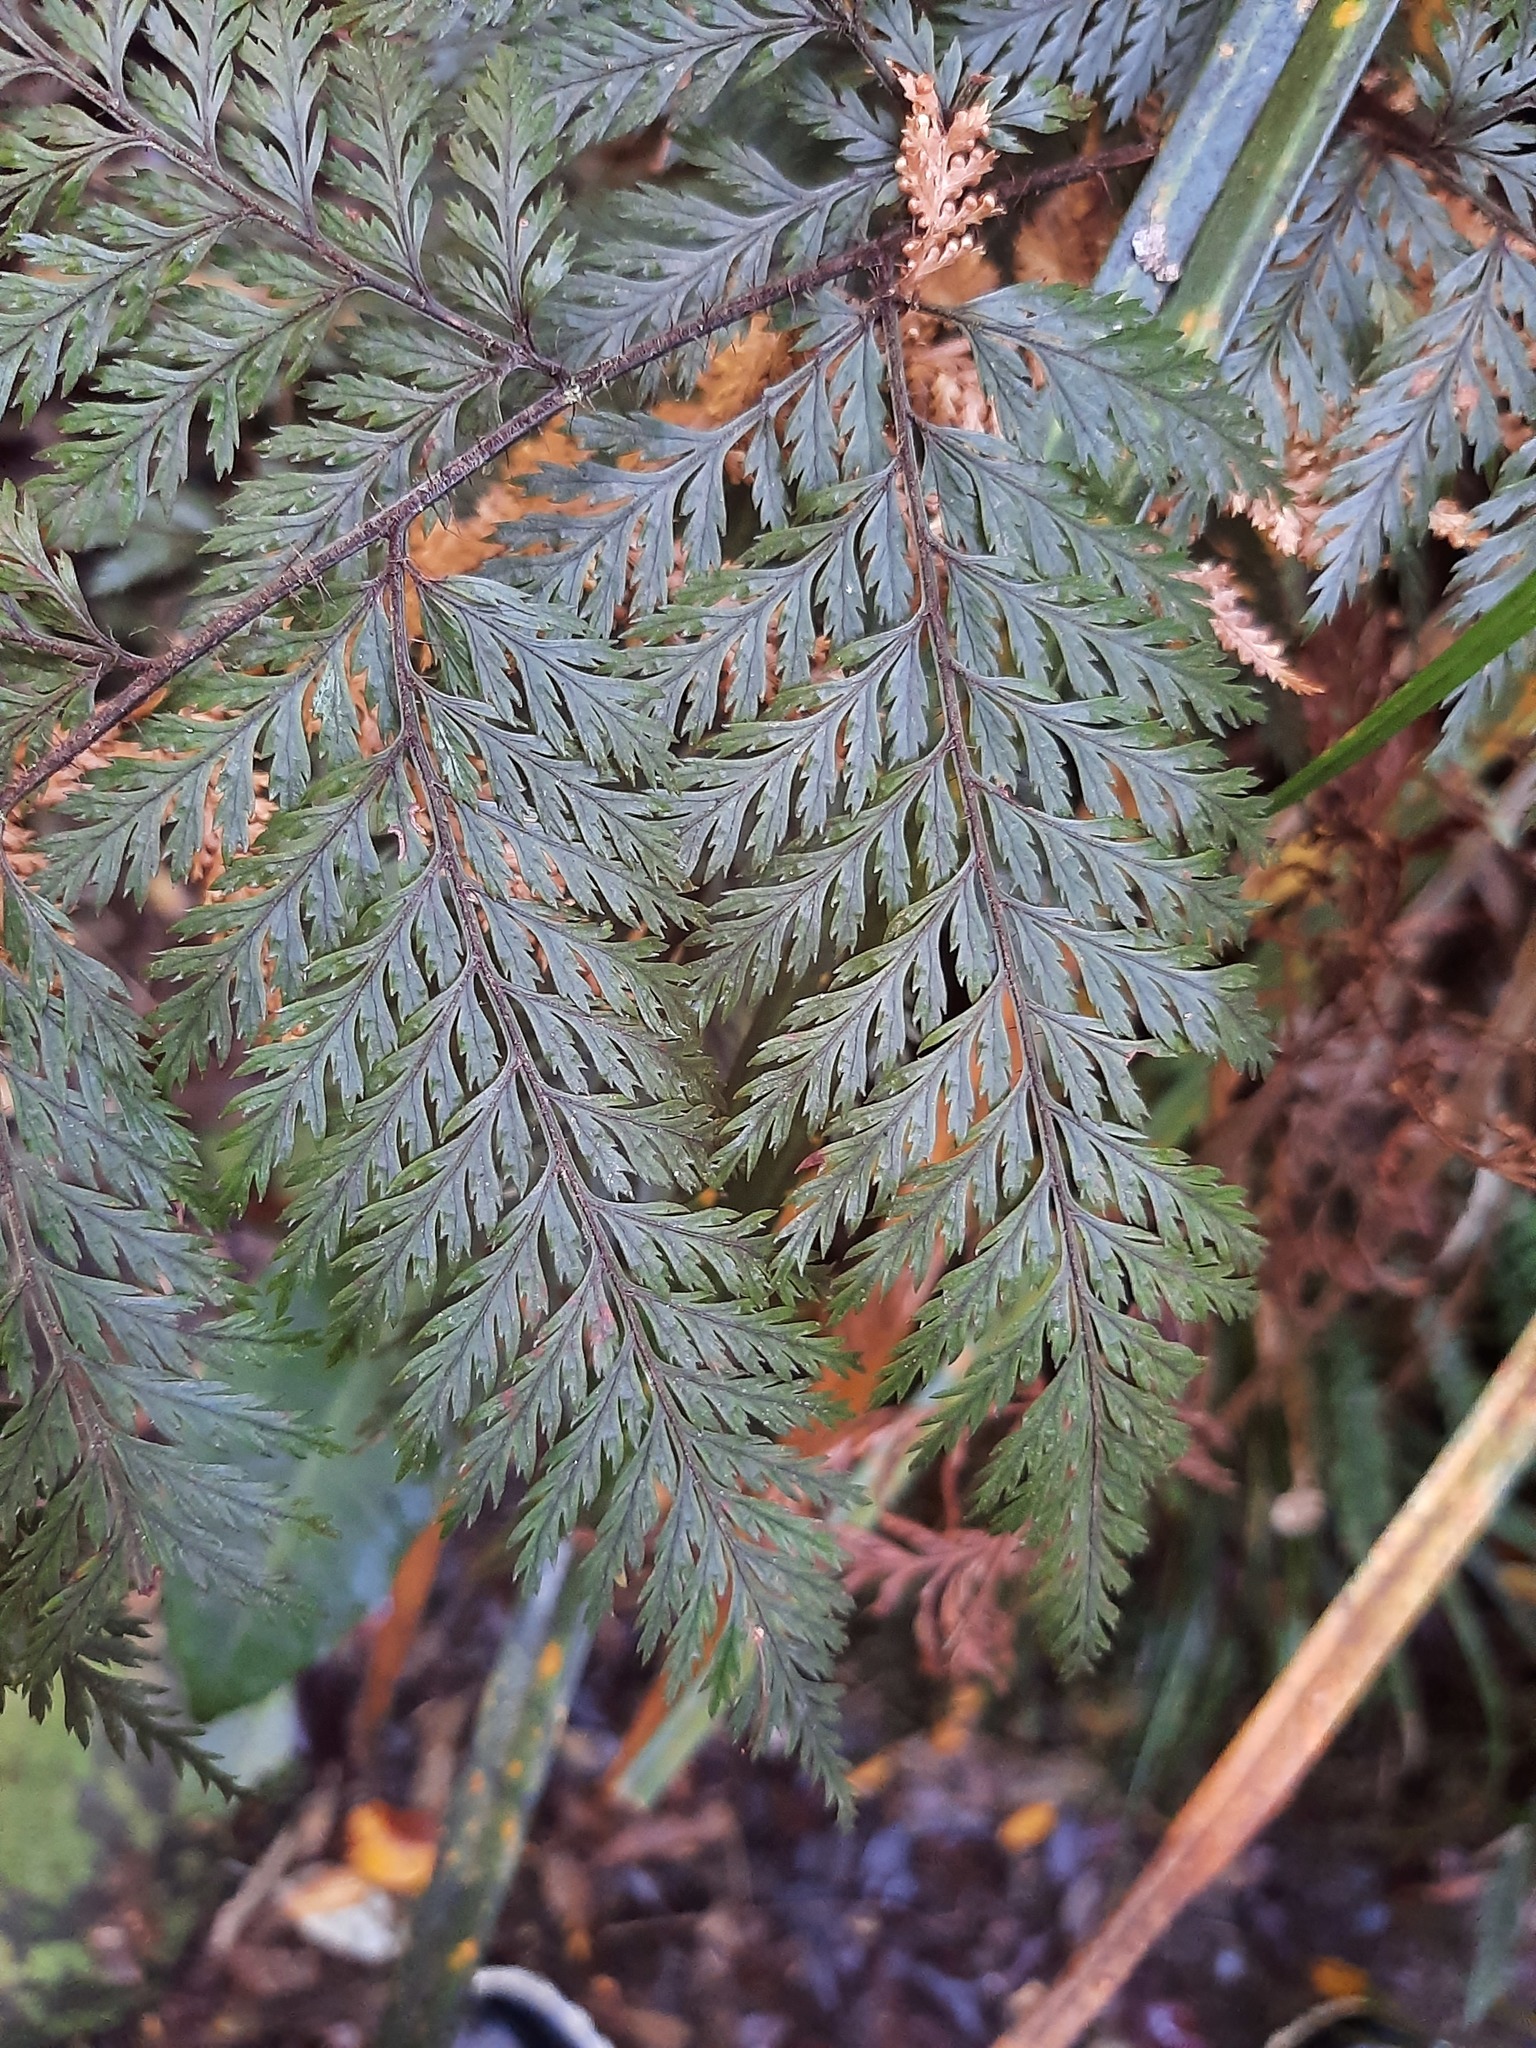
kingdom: Plantae
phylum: Tracheophyta
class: Polypodiopsida
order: Polypodiales
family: Dryopteridaceae
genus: Lastreopsis
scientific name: Lastreopsis hispida
